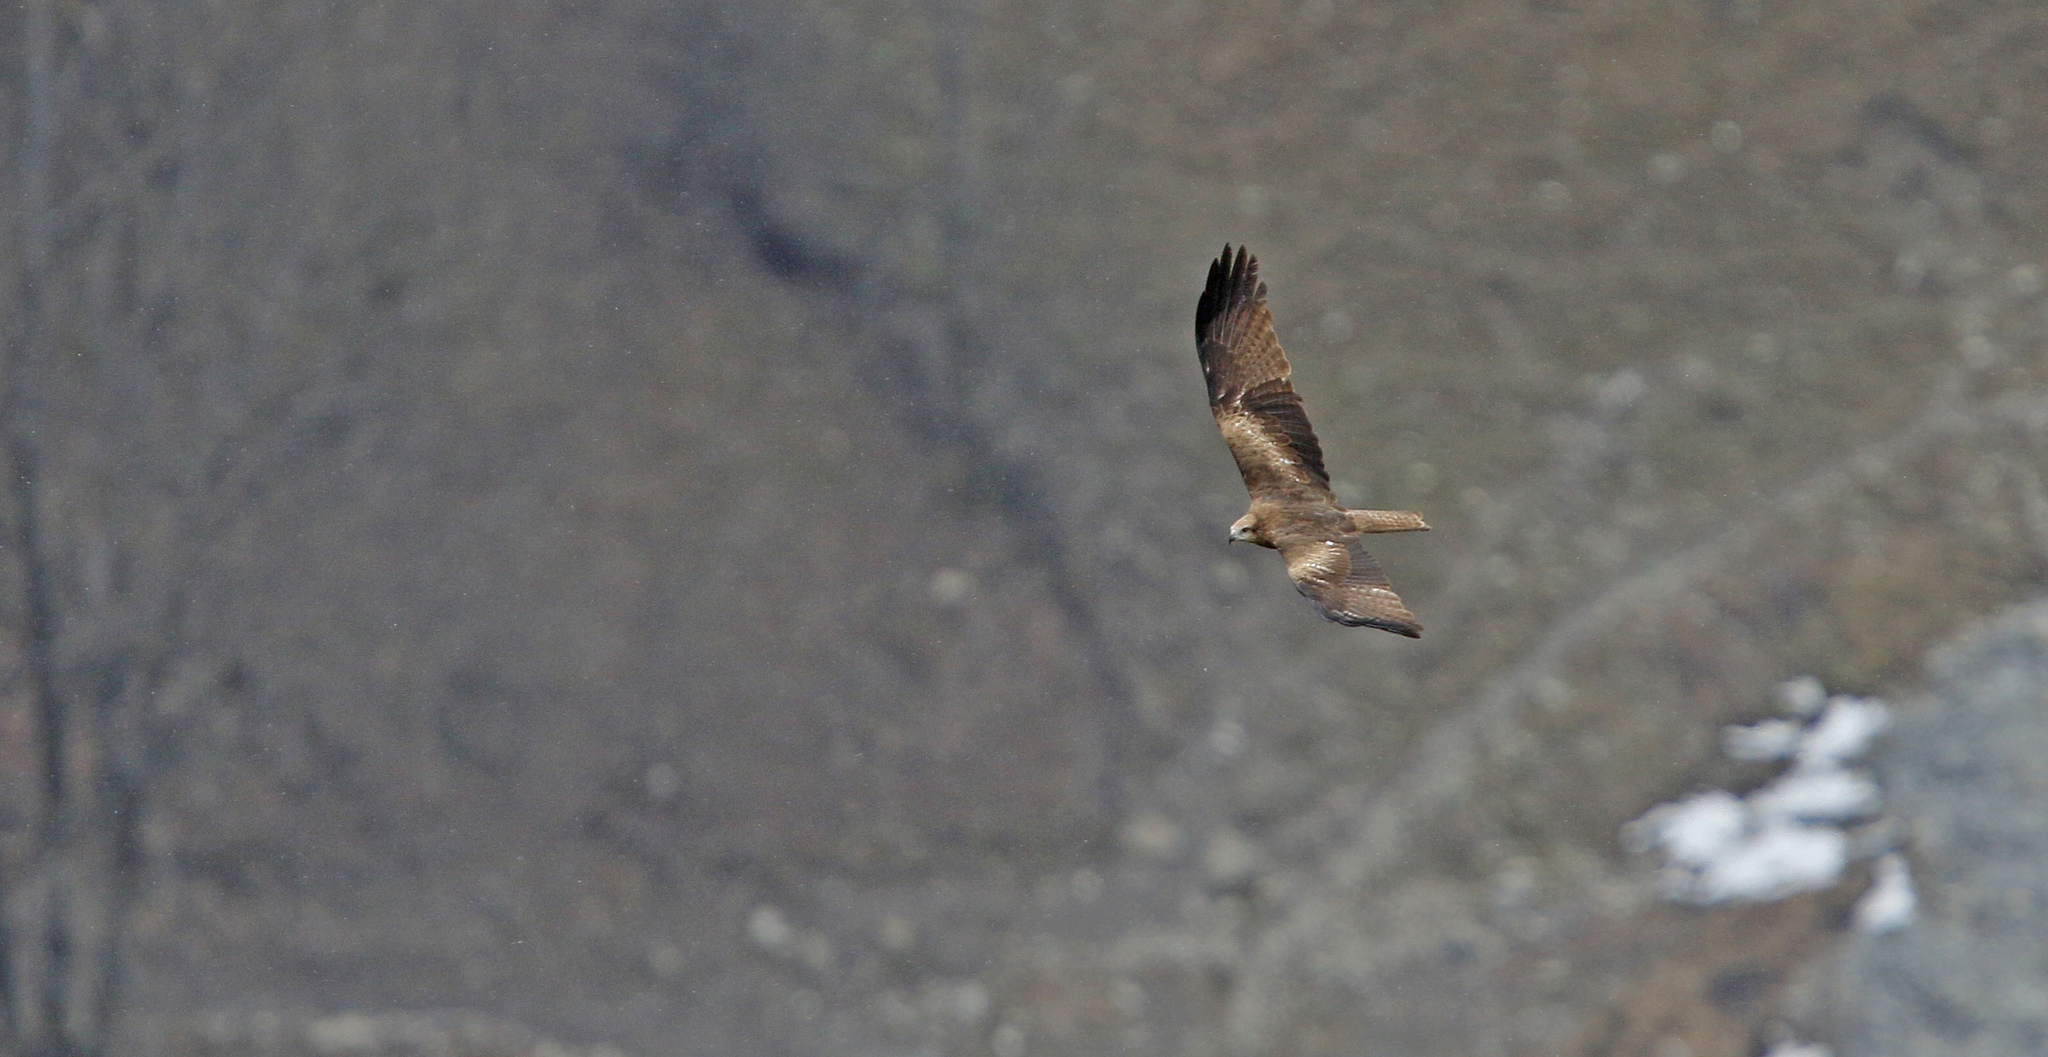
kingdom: Animalia
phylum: Chordata
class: Aves
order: Accipitriformes
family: Accipitridae
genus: Milvus
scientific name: Milvus migrans
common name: Black kite
